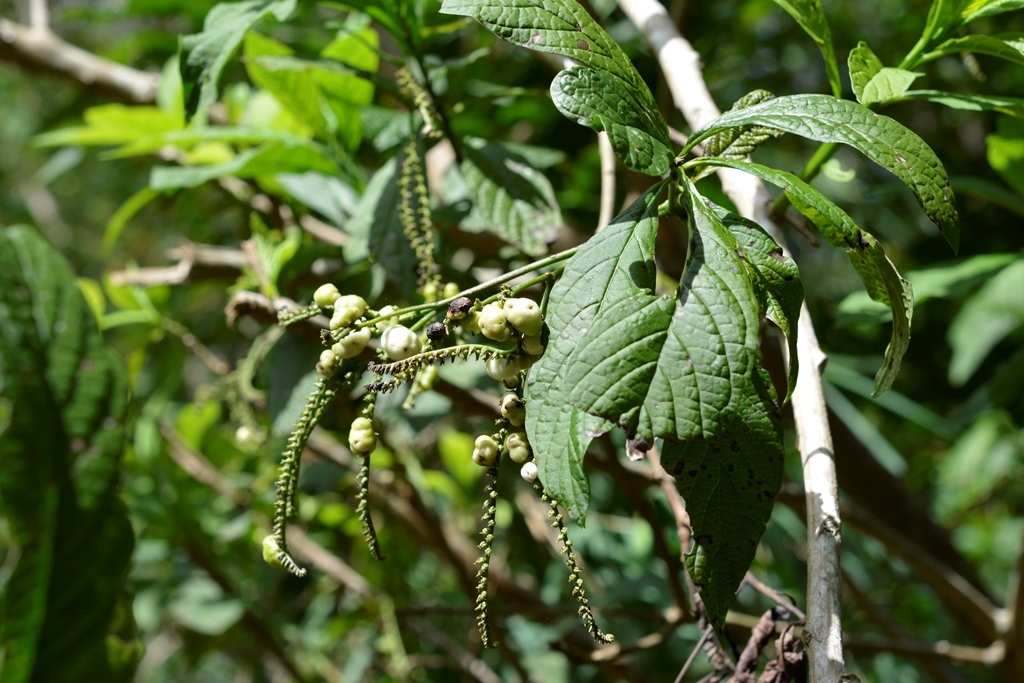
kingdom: Plantae
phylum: Tracheophyta
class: Magnoliopsida
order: Boraginales
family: Heliotropiaceae
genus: Heliotropium
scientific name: Heliotropium
